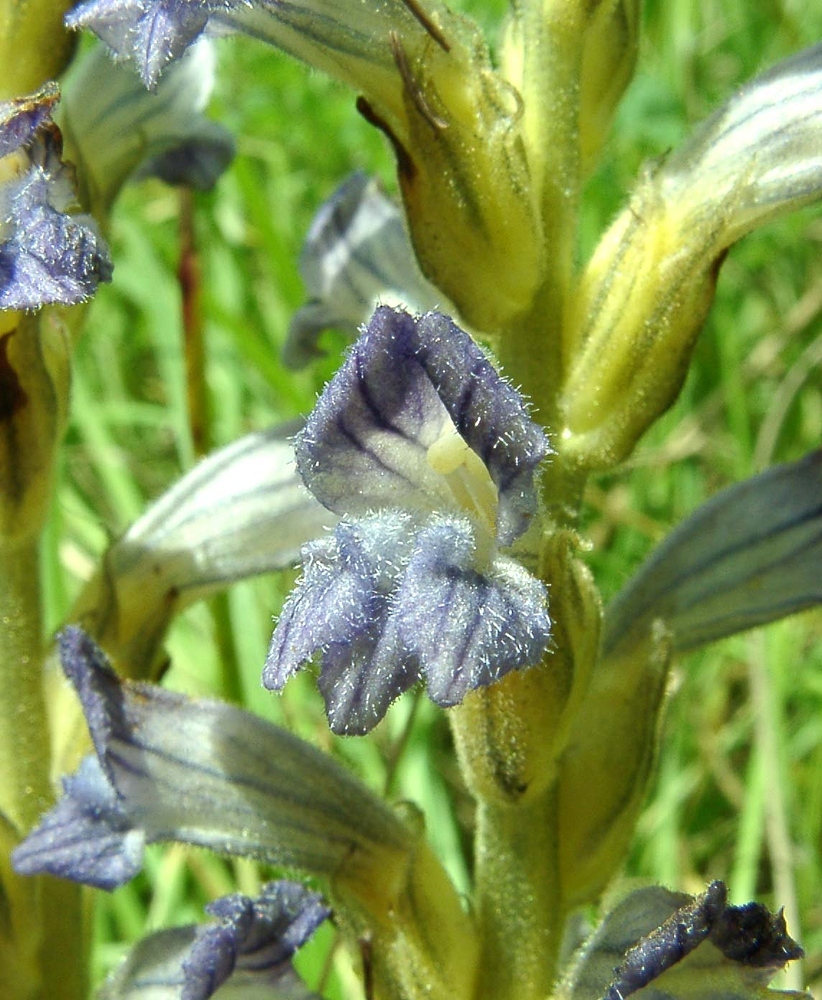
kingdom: Plantae
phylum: Tracheophyta
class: Magnoliopsida
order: Lamiales
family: Orobanchaceae
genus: Phelipanche
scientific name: Phelipanche purpurea
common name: Purple broomrape
